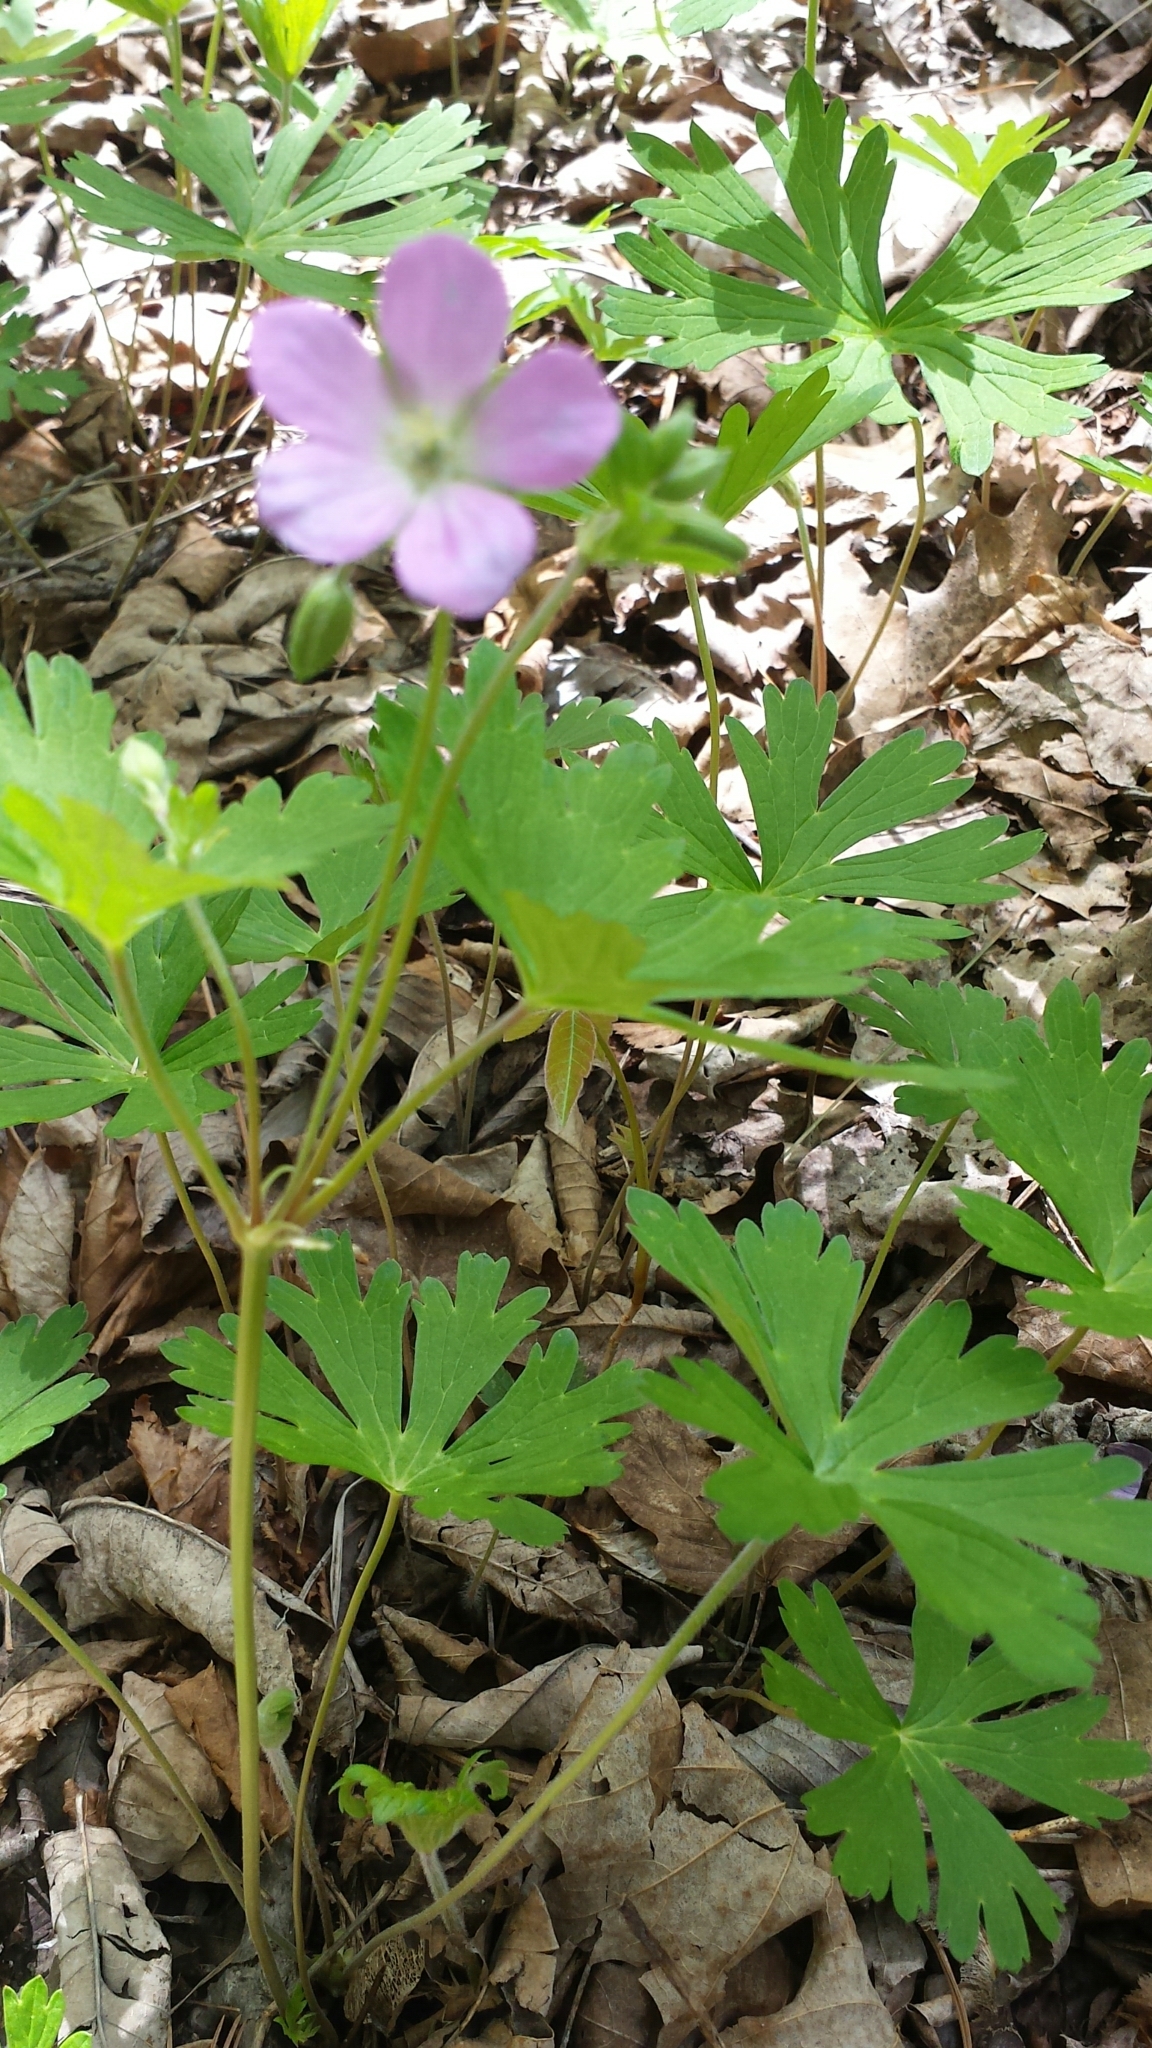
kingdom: Plantae
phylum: Tracheophyta
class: Magnoliopsida
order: Geraniales
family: Geraniaceae
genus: Geranium
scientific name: Geranium maculatum
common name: Spotted geranium
